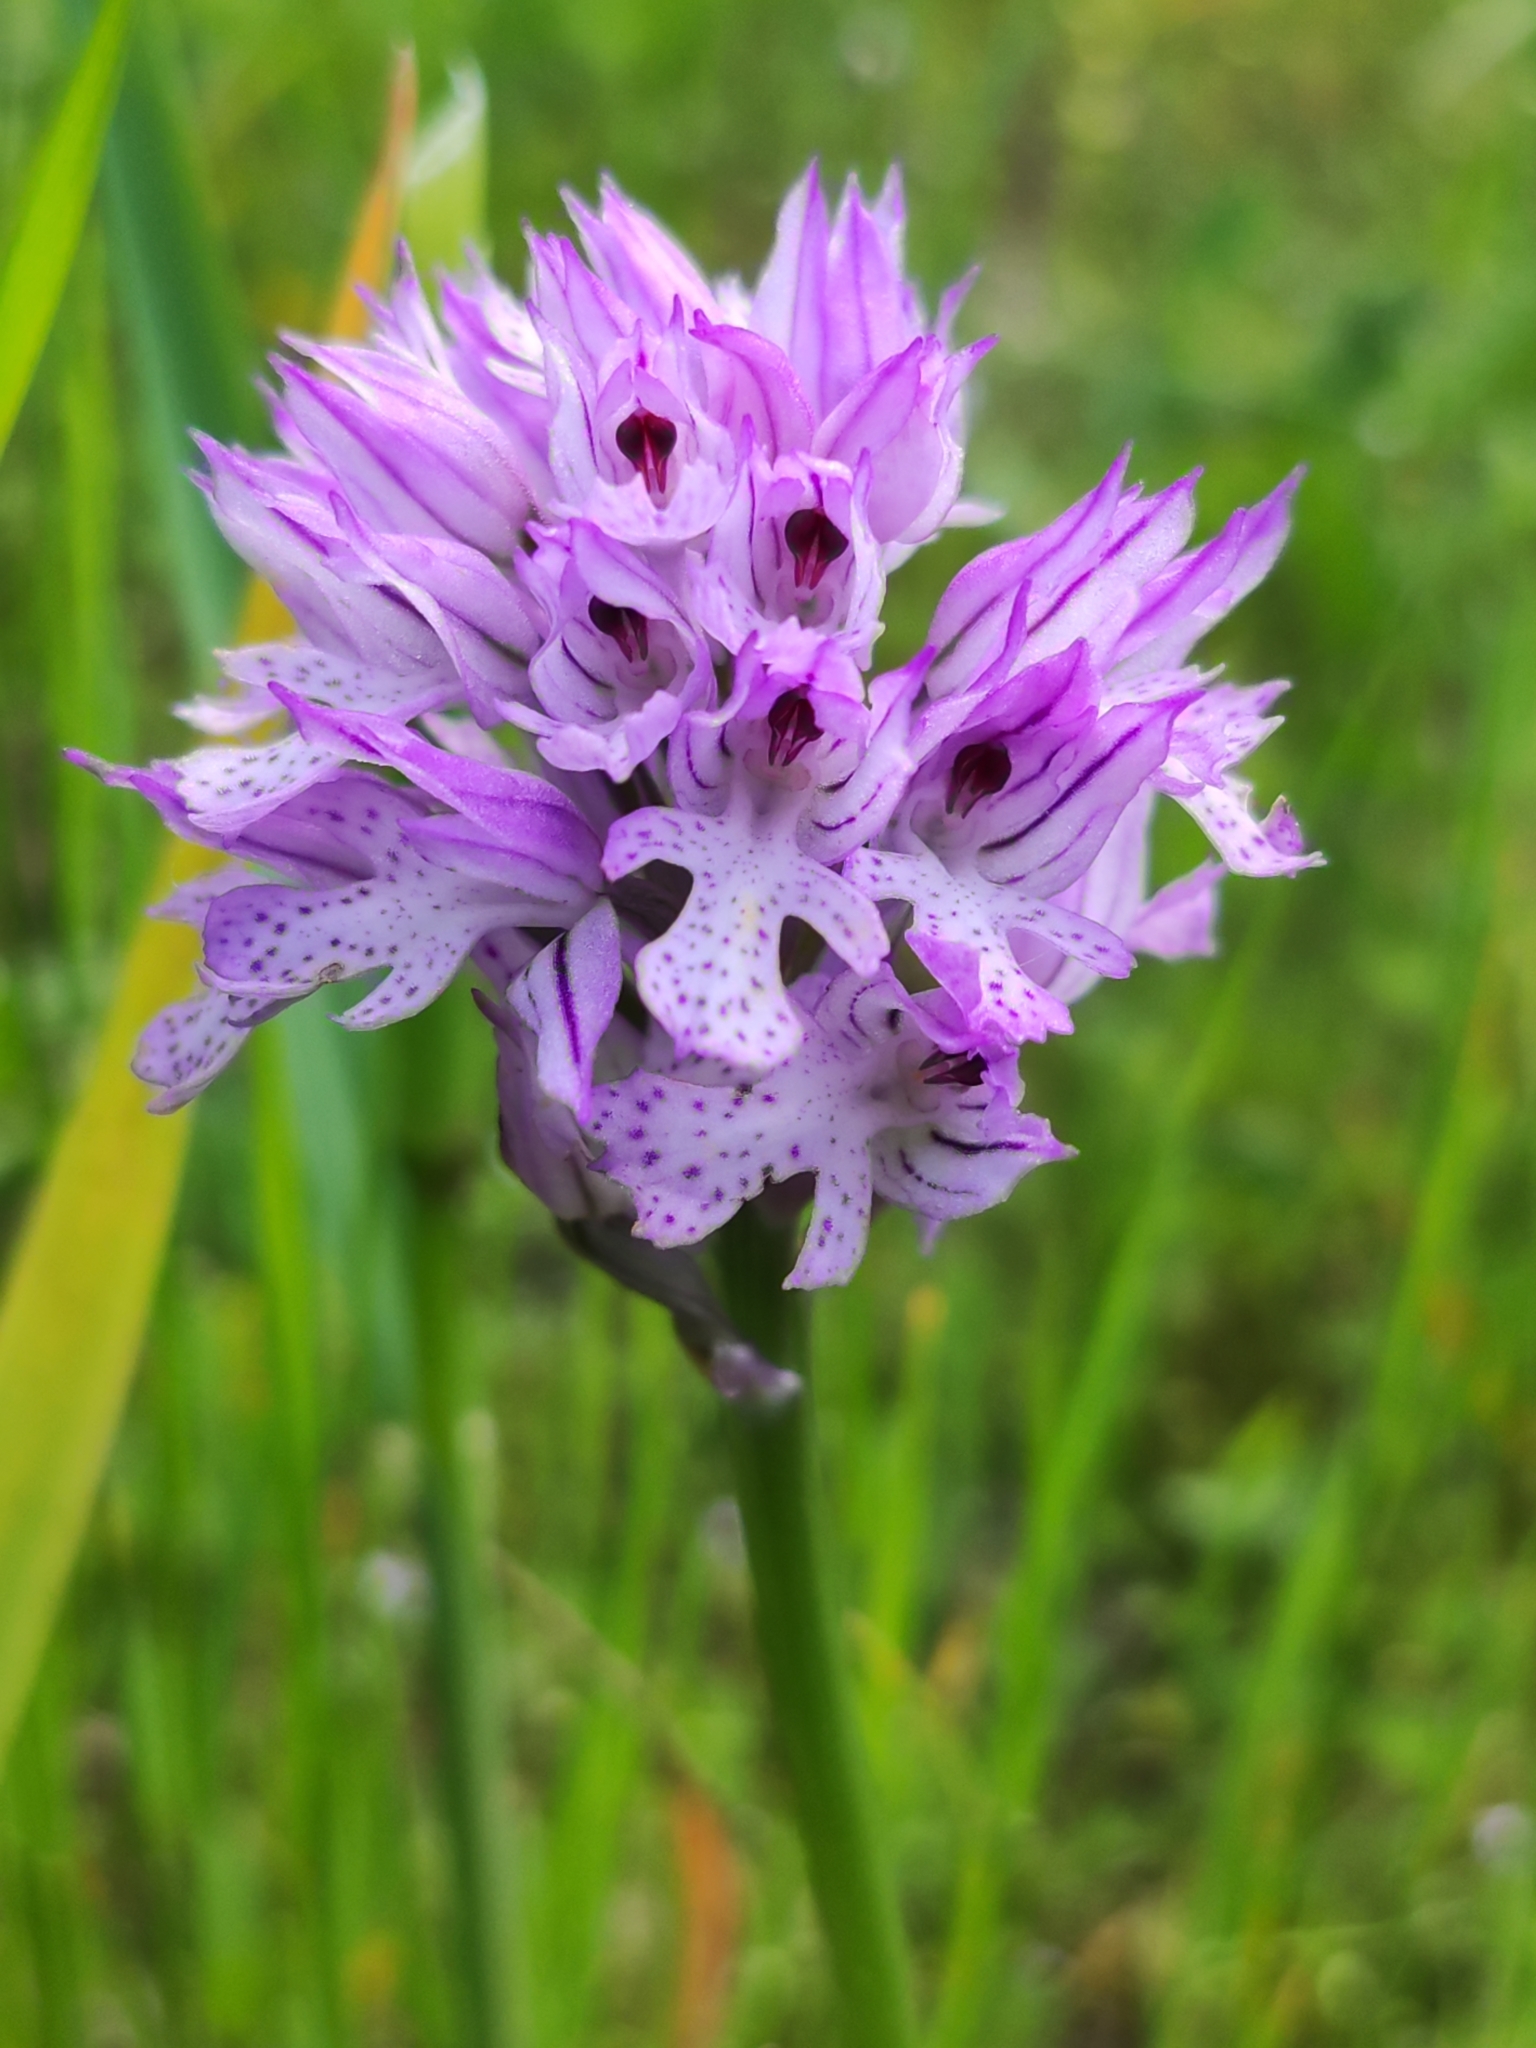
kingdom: Plantae
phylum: Tracheophyta
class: Liliopsida
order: Asparagales
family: Orchidaceae
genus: Neotinea
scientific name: Neotinea tridentata
